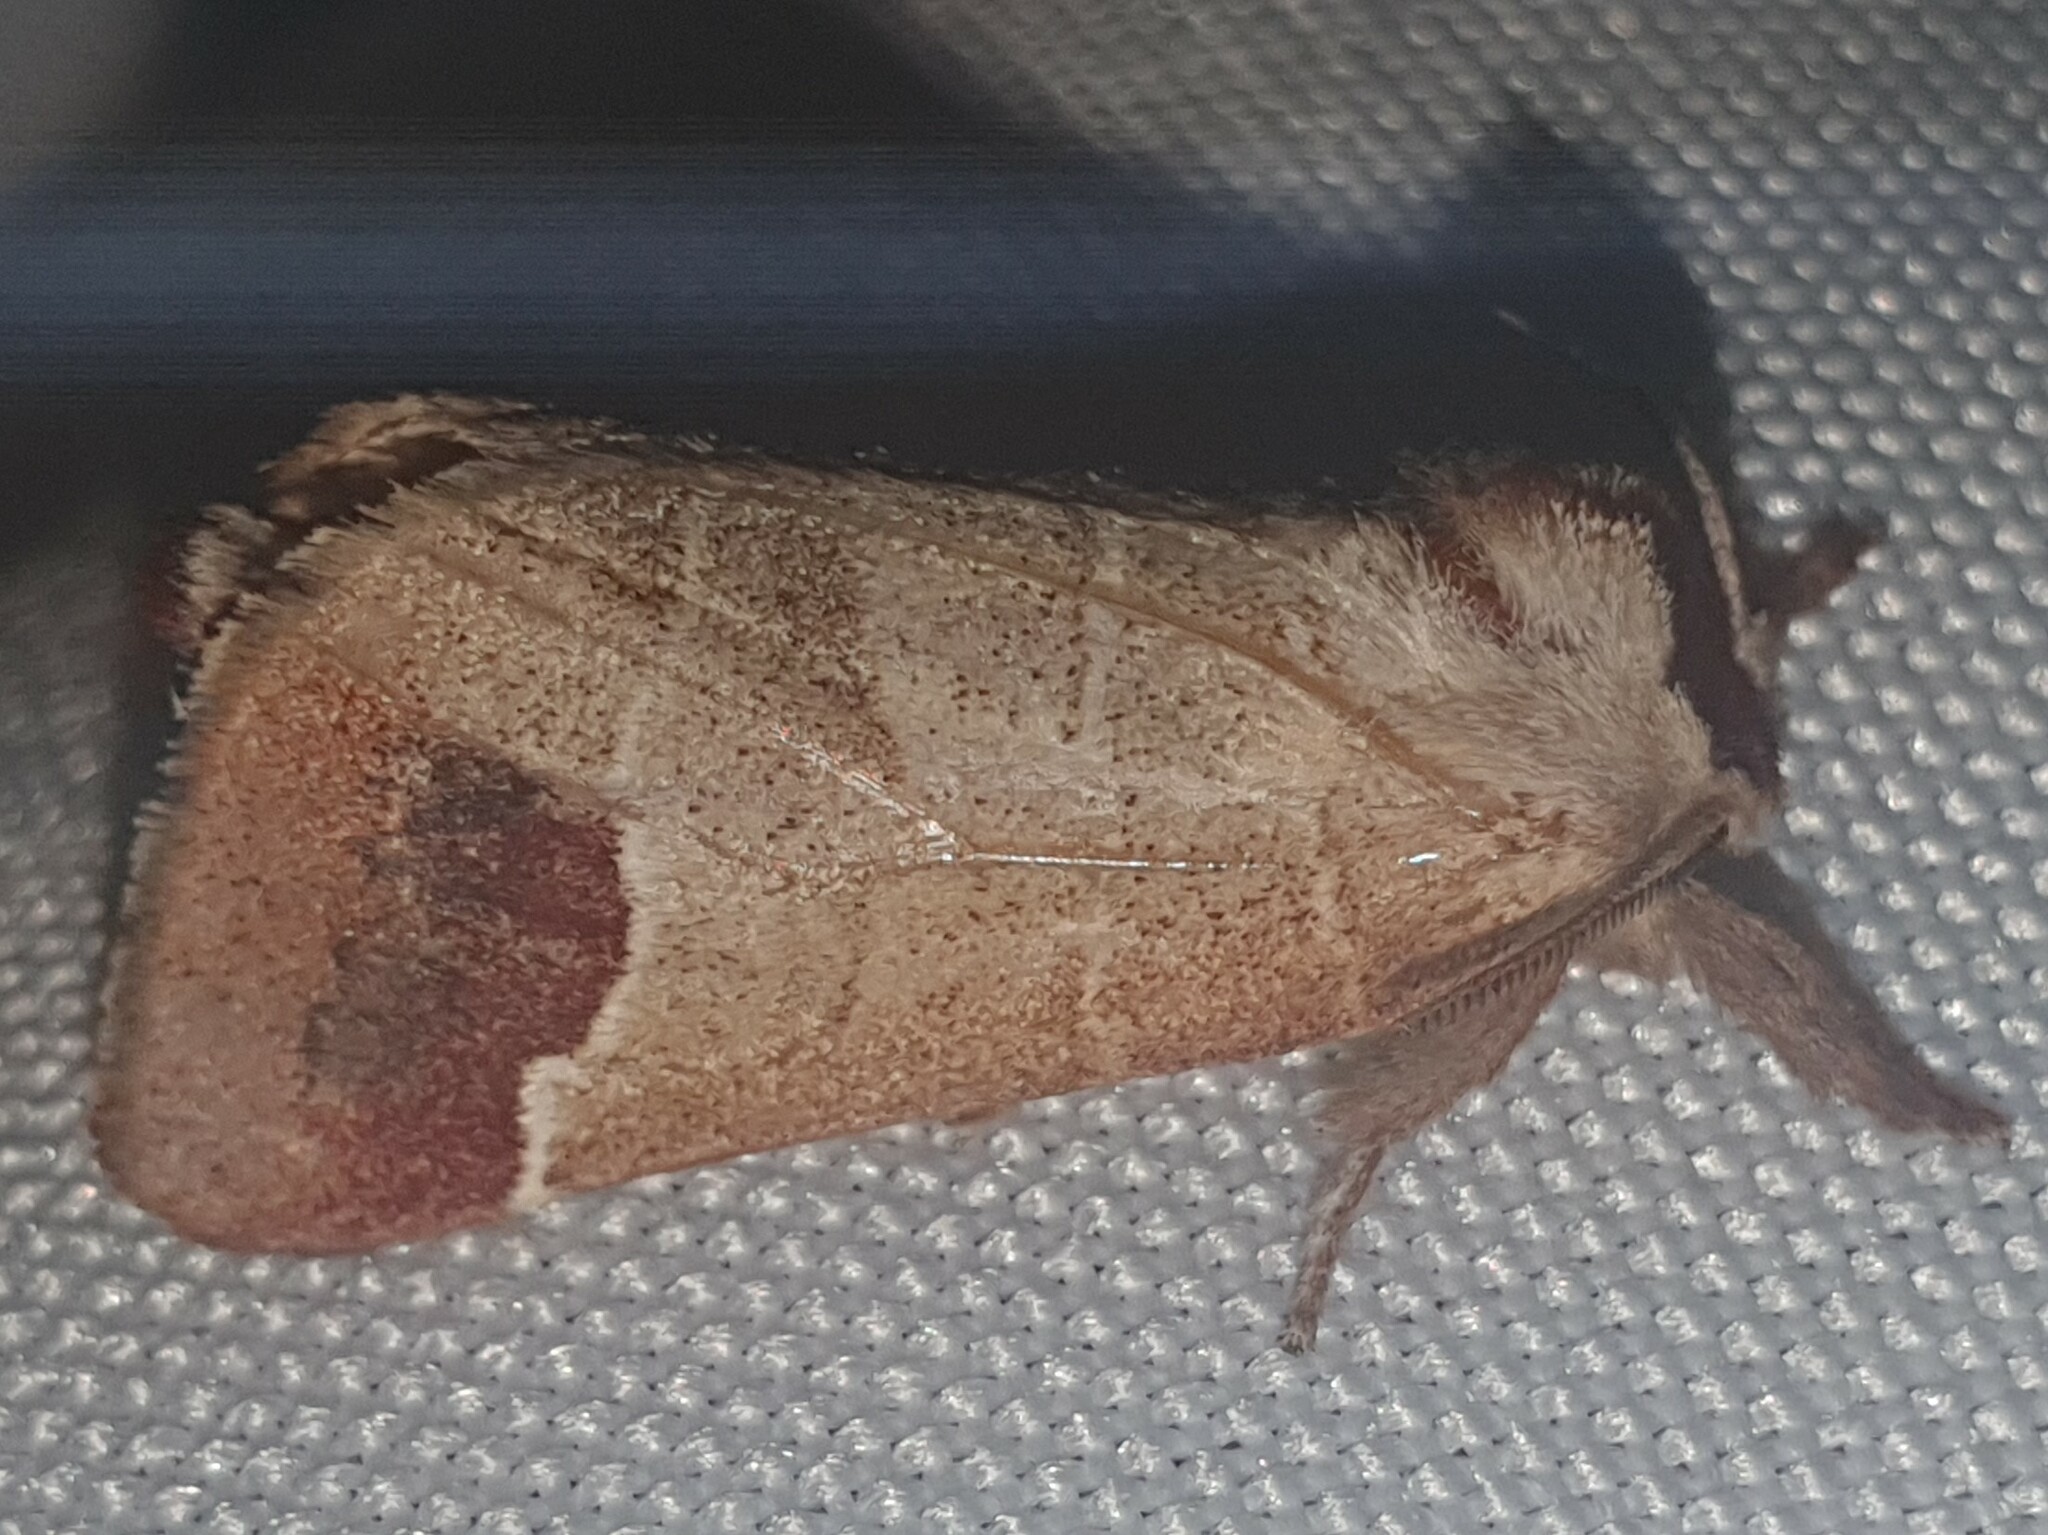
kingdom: Animalia
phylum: Arthropoda
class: Insecta
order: Lepidoptera
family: Notodontidae
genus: Clostera
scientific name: Clostera curtula
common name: Chocolate-tip
